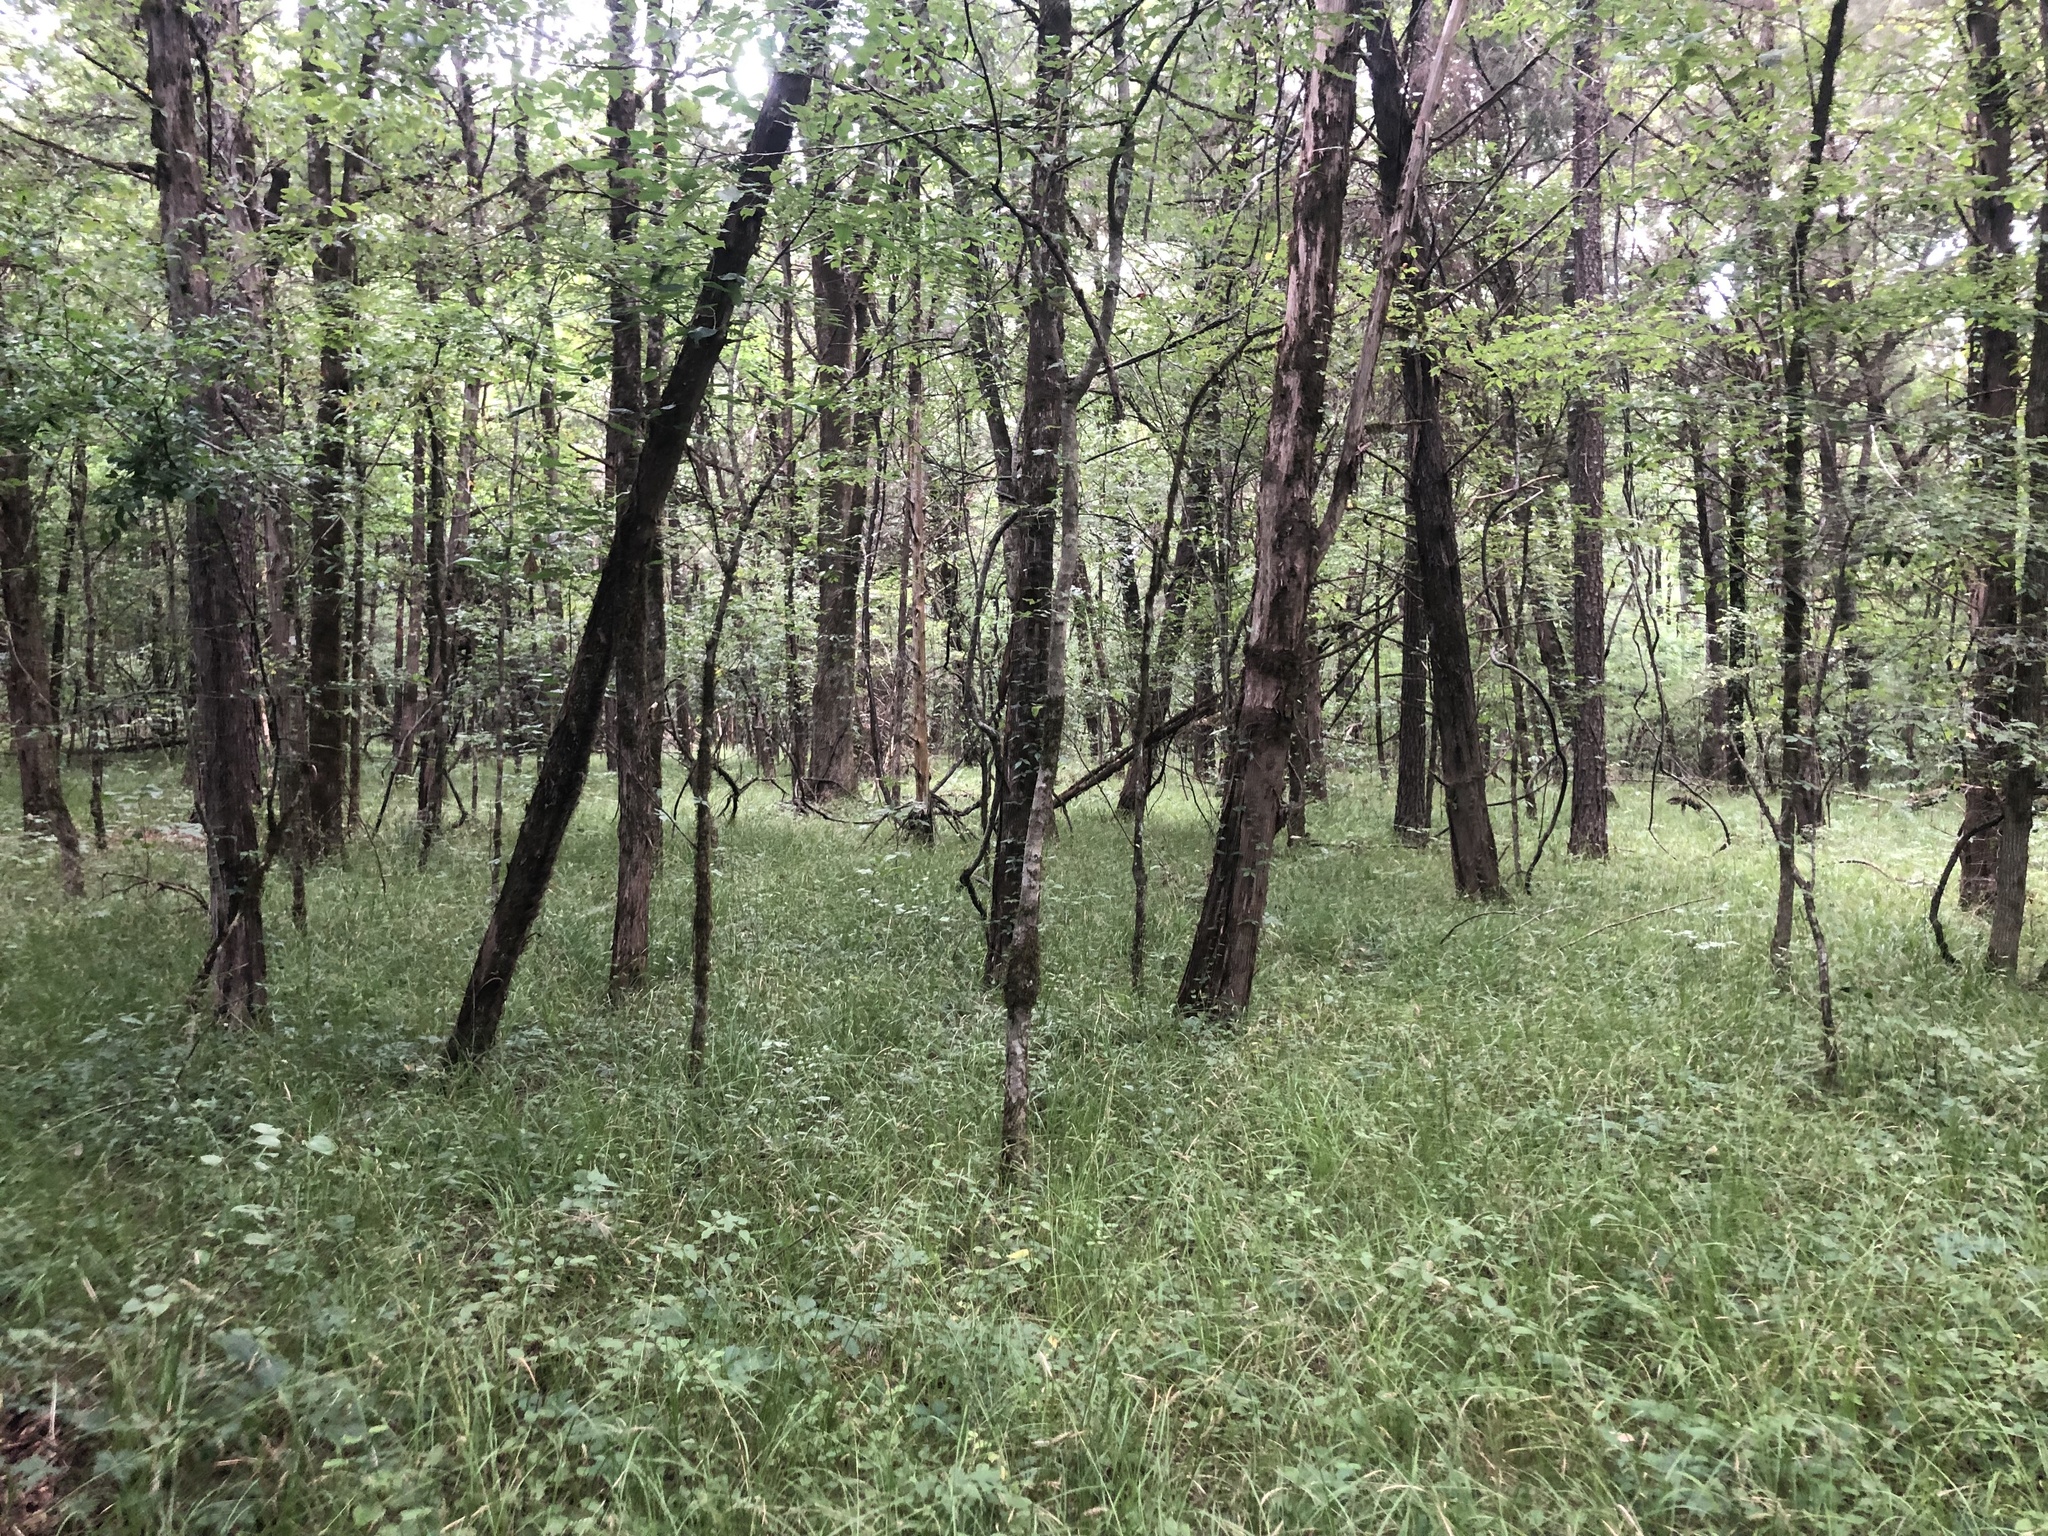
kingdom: Plantae
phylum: Tracheophyta
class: Liliopsida
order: Poales
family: Cyperaceae
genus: Carex
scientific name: Carex cherokeensis
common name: Cherokee sedge
